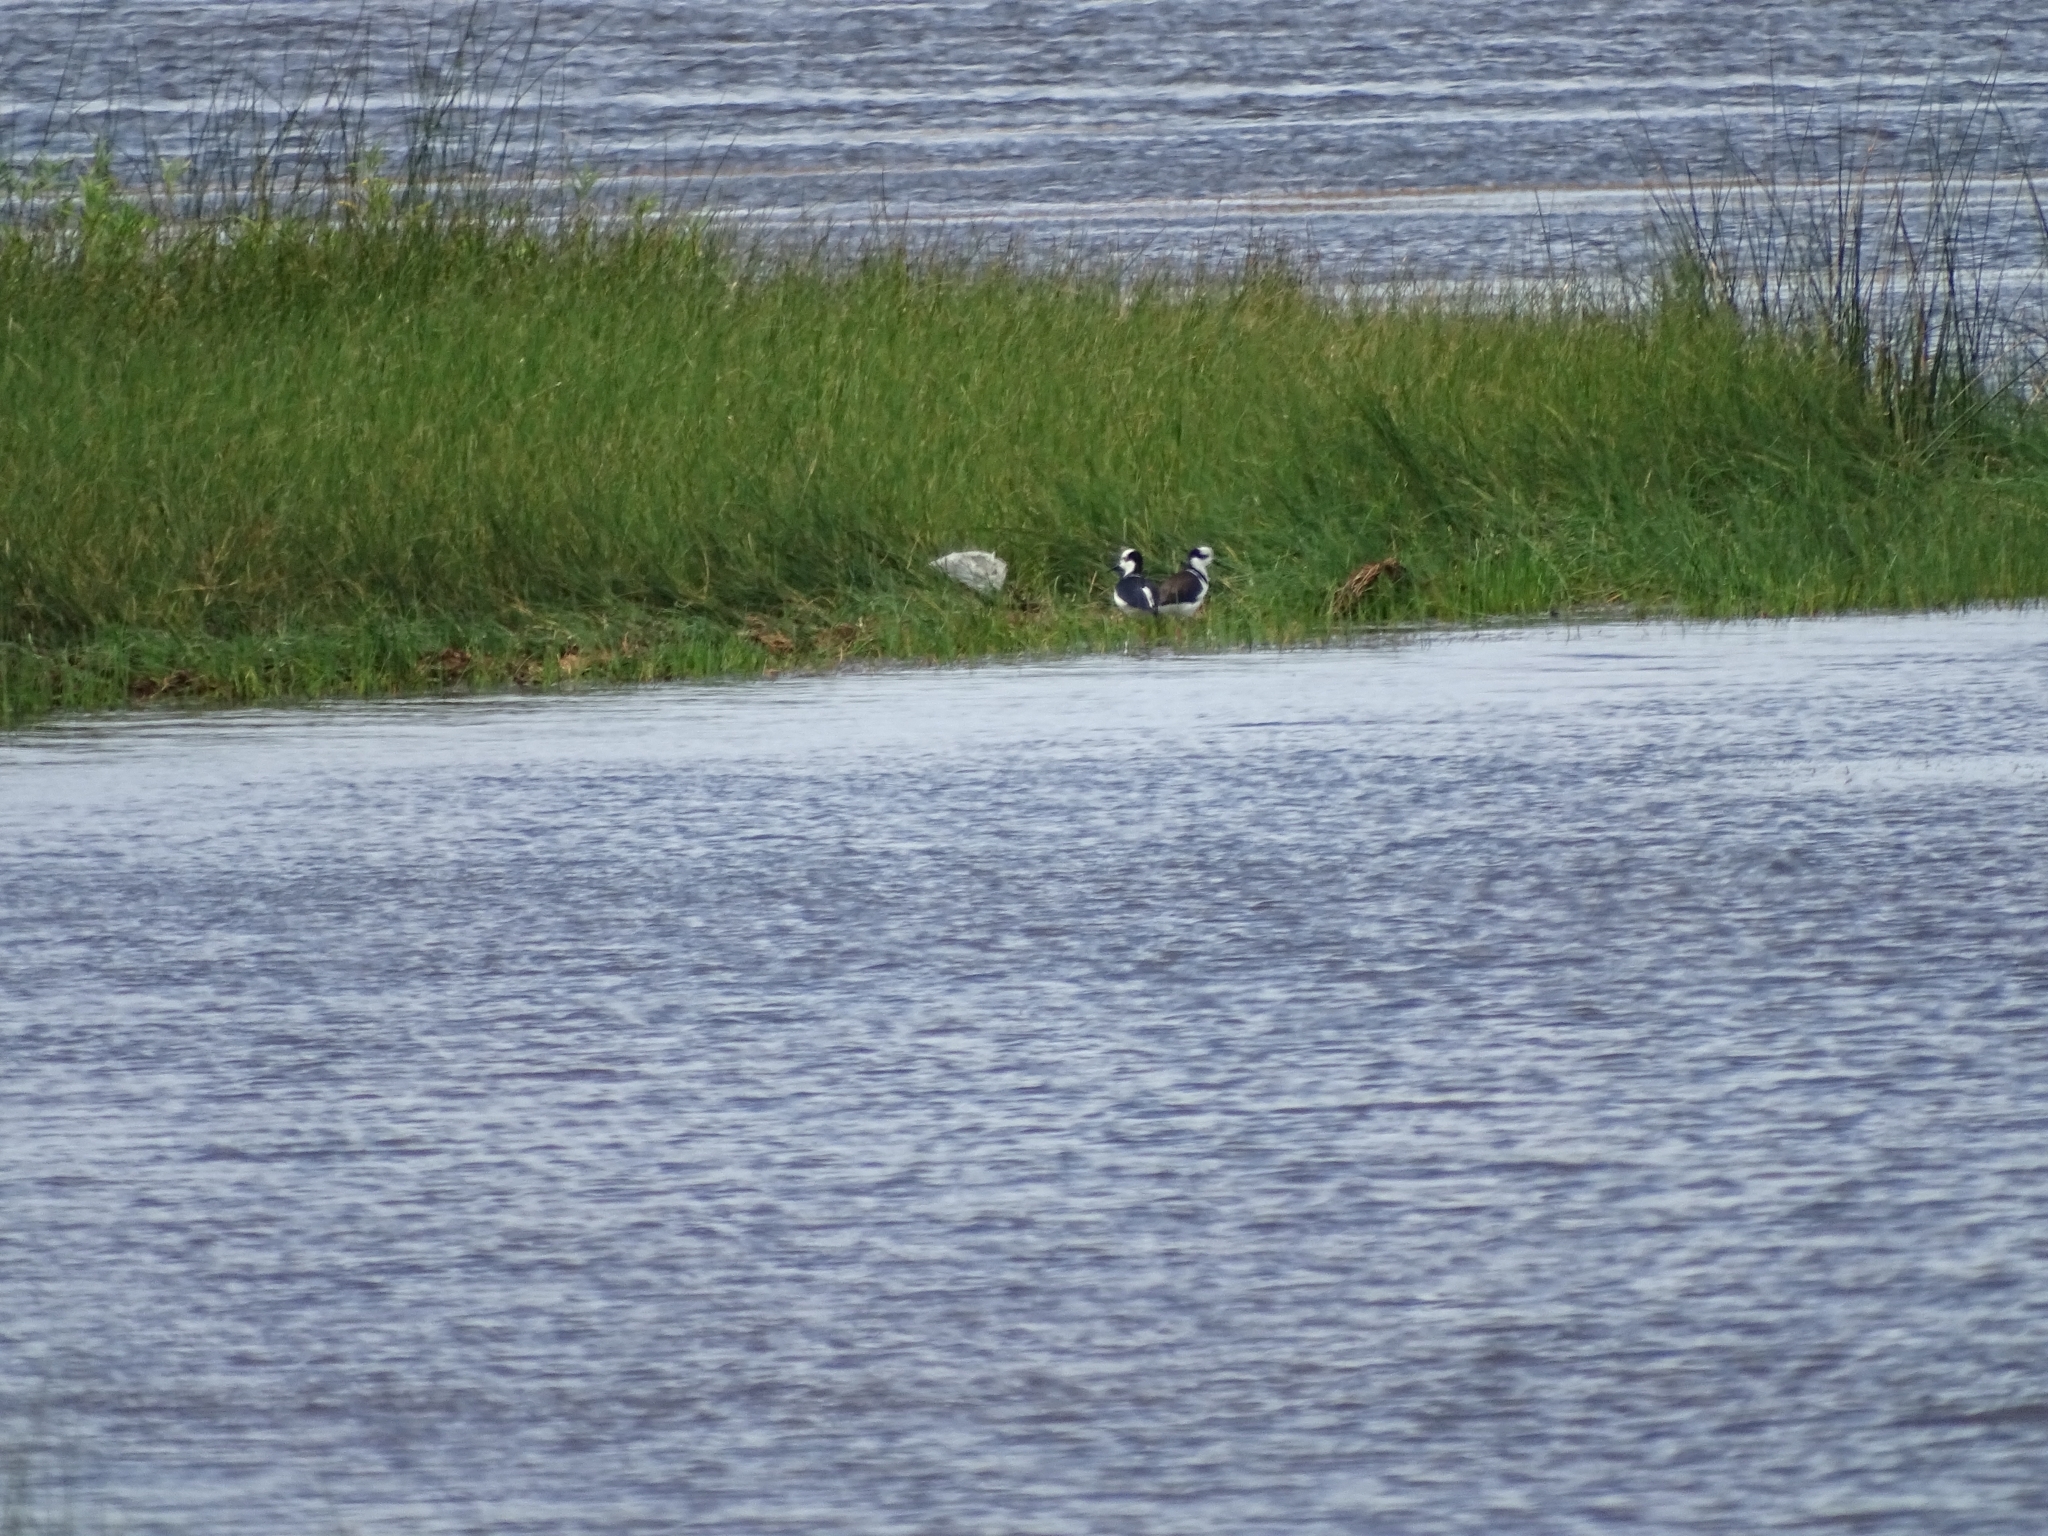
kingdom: Animalia
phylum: Chordata
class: Aves
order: Charadriiformes
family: Recurvirostridae
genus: Himantopus
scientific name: Himantopus mexicanus
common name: Black-necked stilt
